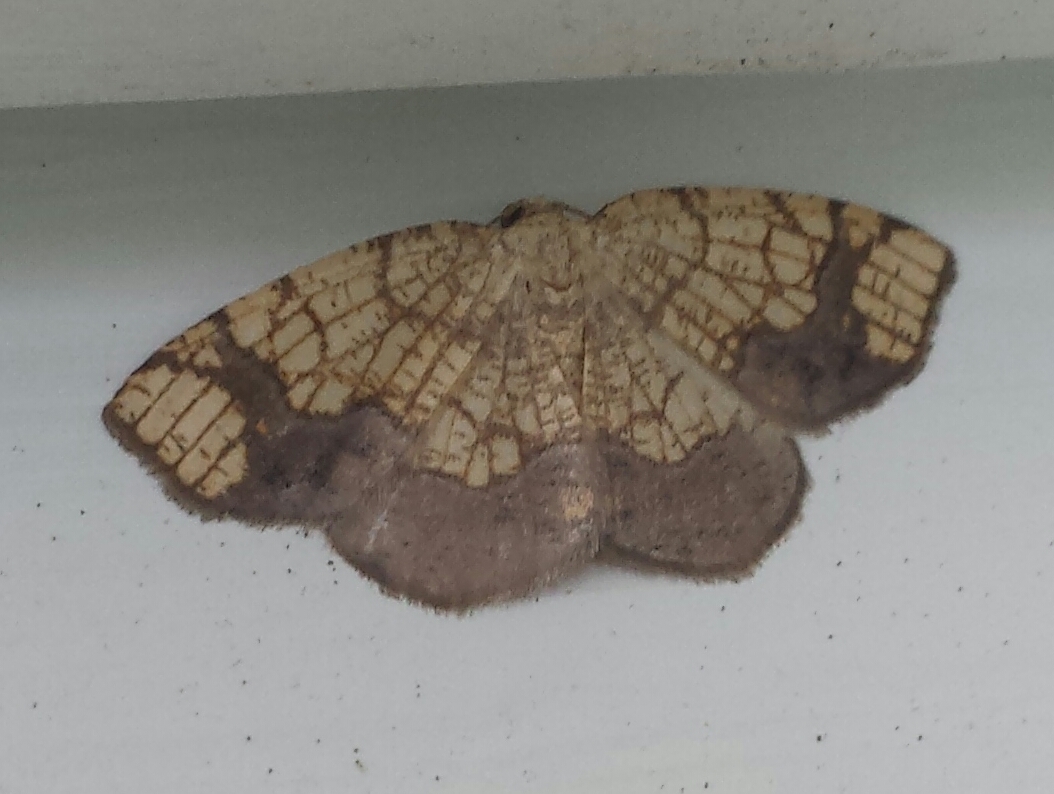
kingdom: Animalia
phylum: Arthropoda
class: Insecta
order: Lepidoptera
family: Geometridae
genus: Nematocampa
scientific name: Nematocampa resistaria
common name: Horned spanworm moth
